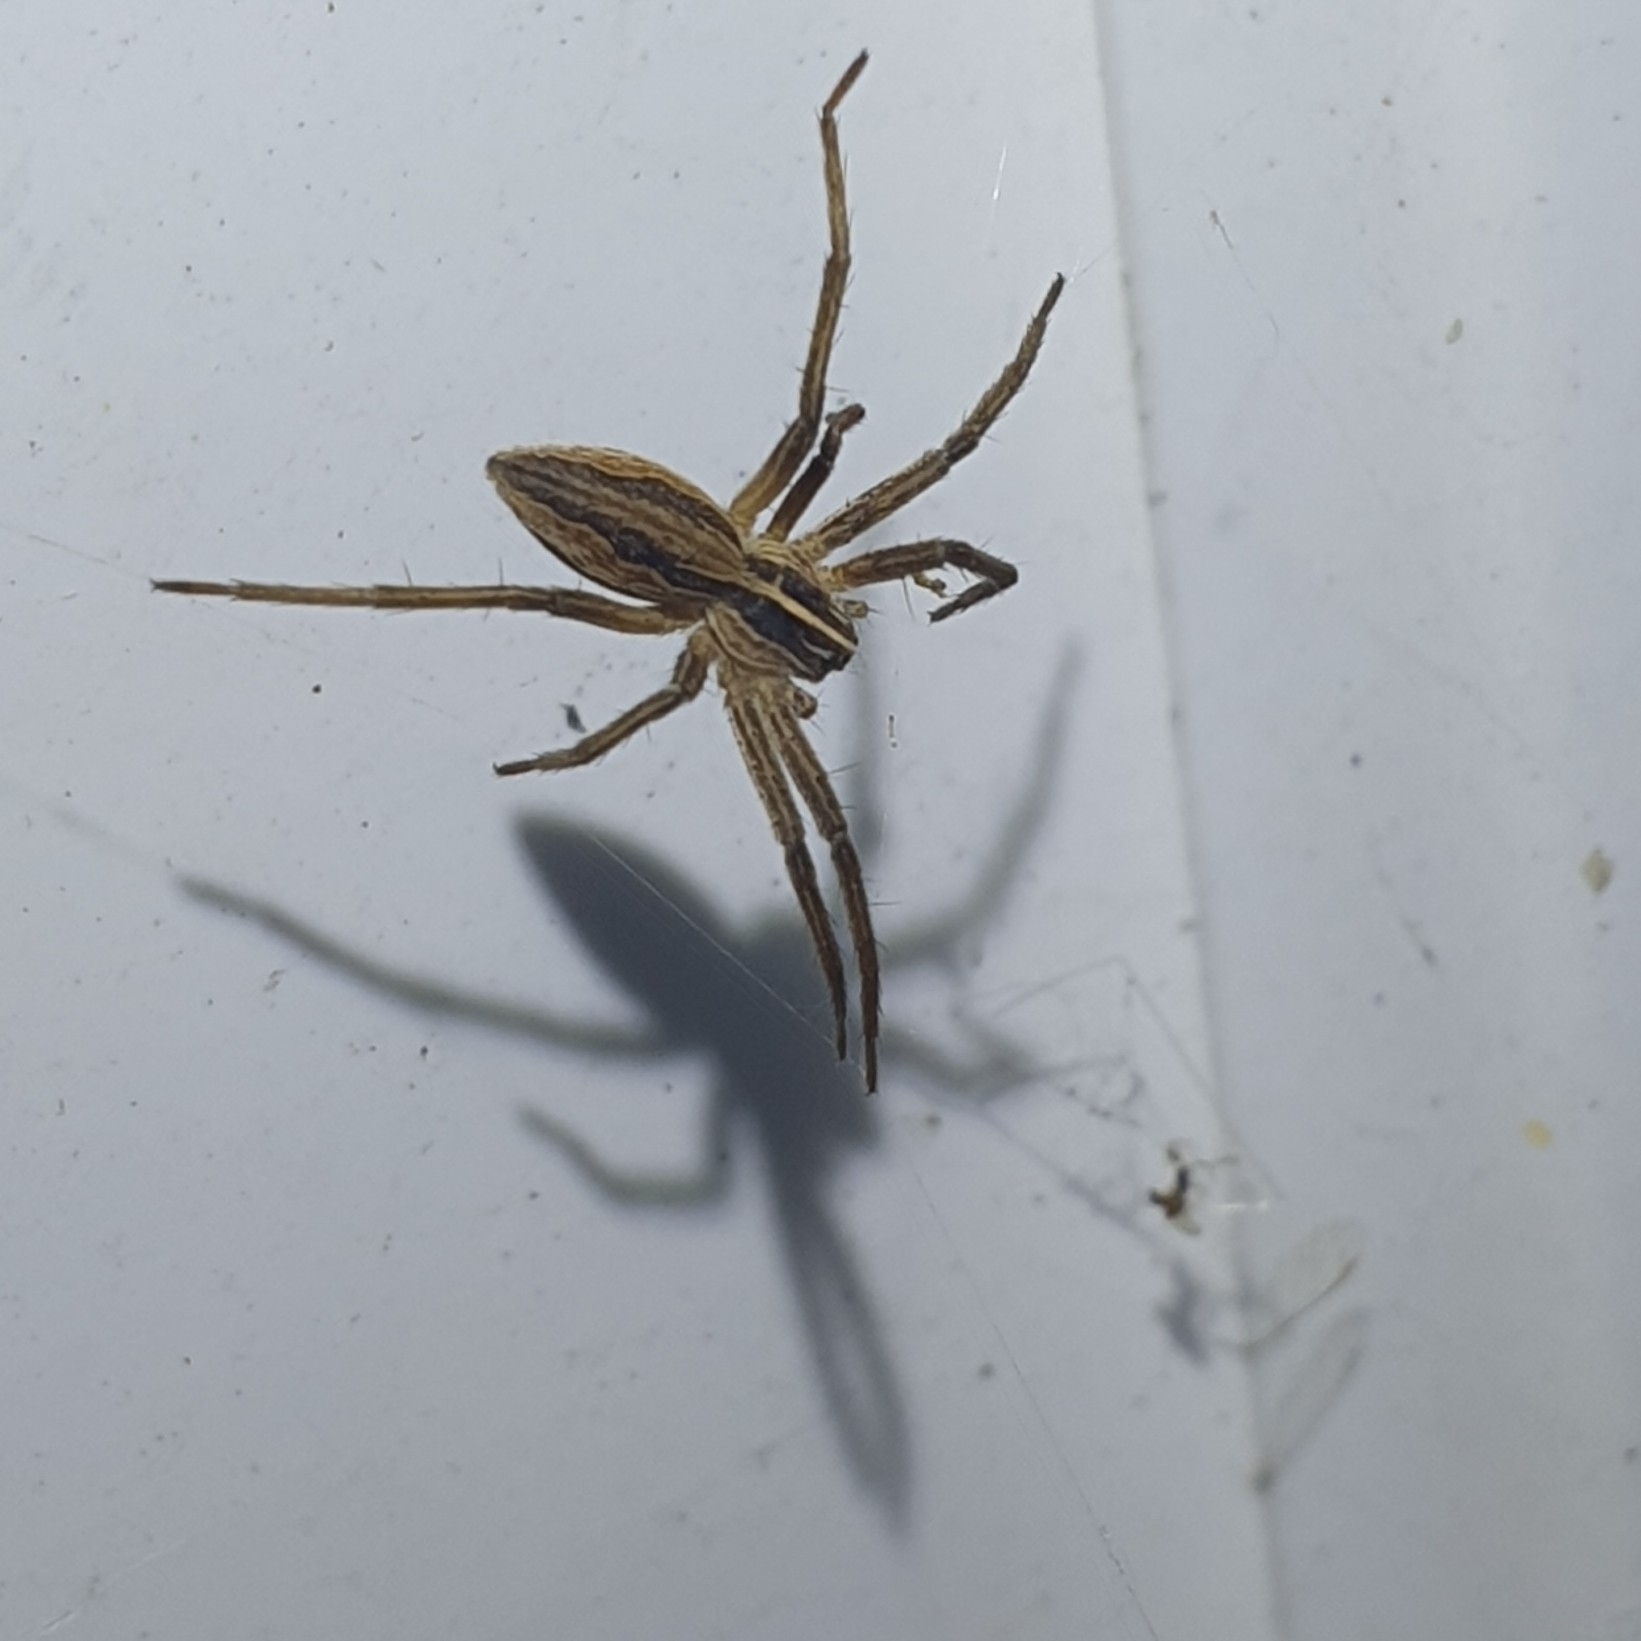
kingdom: Animalia
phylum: Arthropoda
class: Arachnida
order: Araneae
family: Pisauridae
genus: Pisaura
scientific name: Pisaura mirabilis
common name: Tent spider
